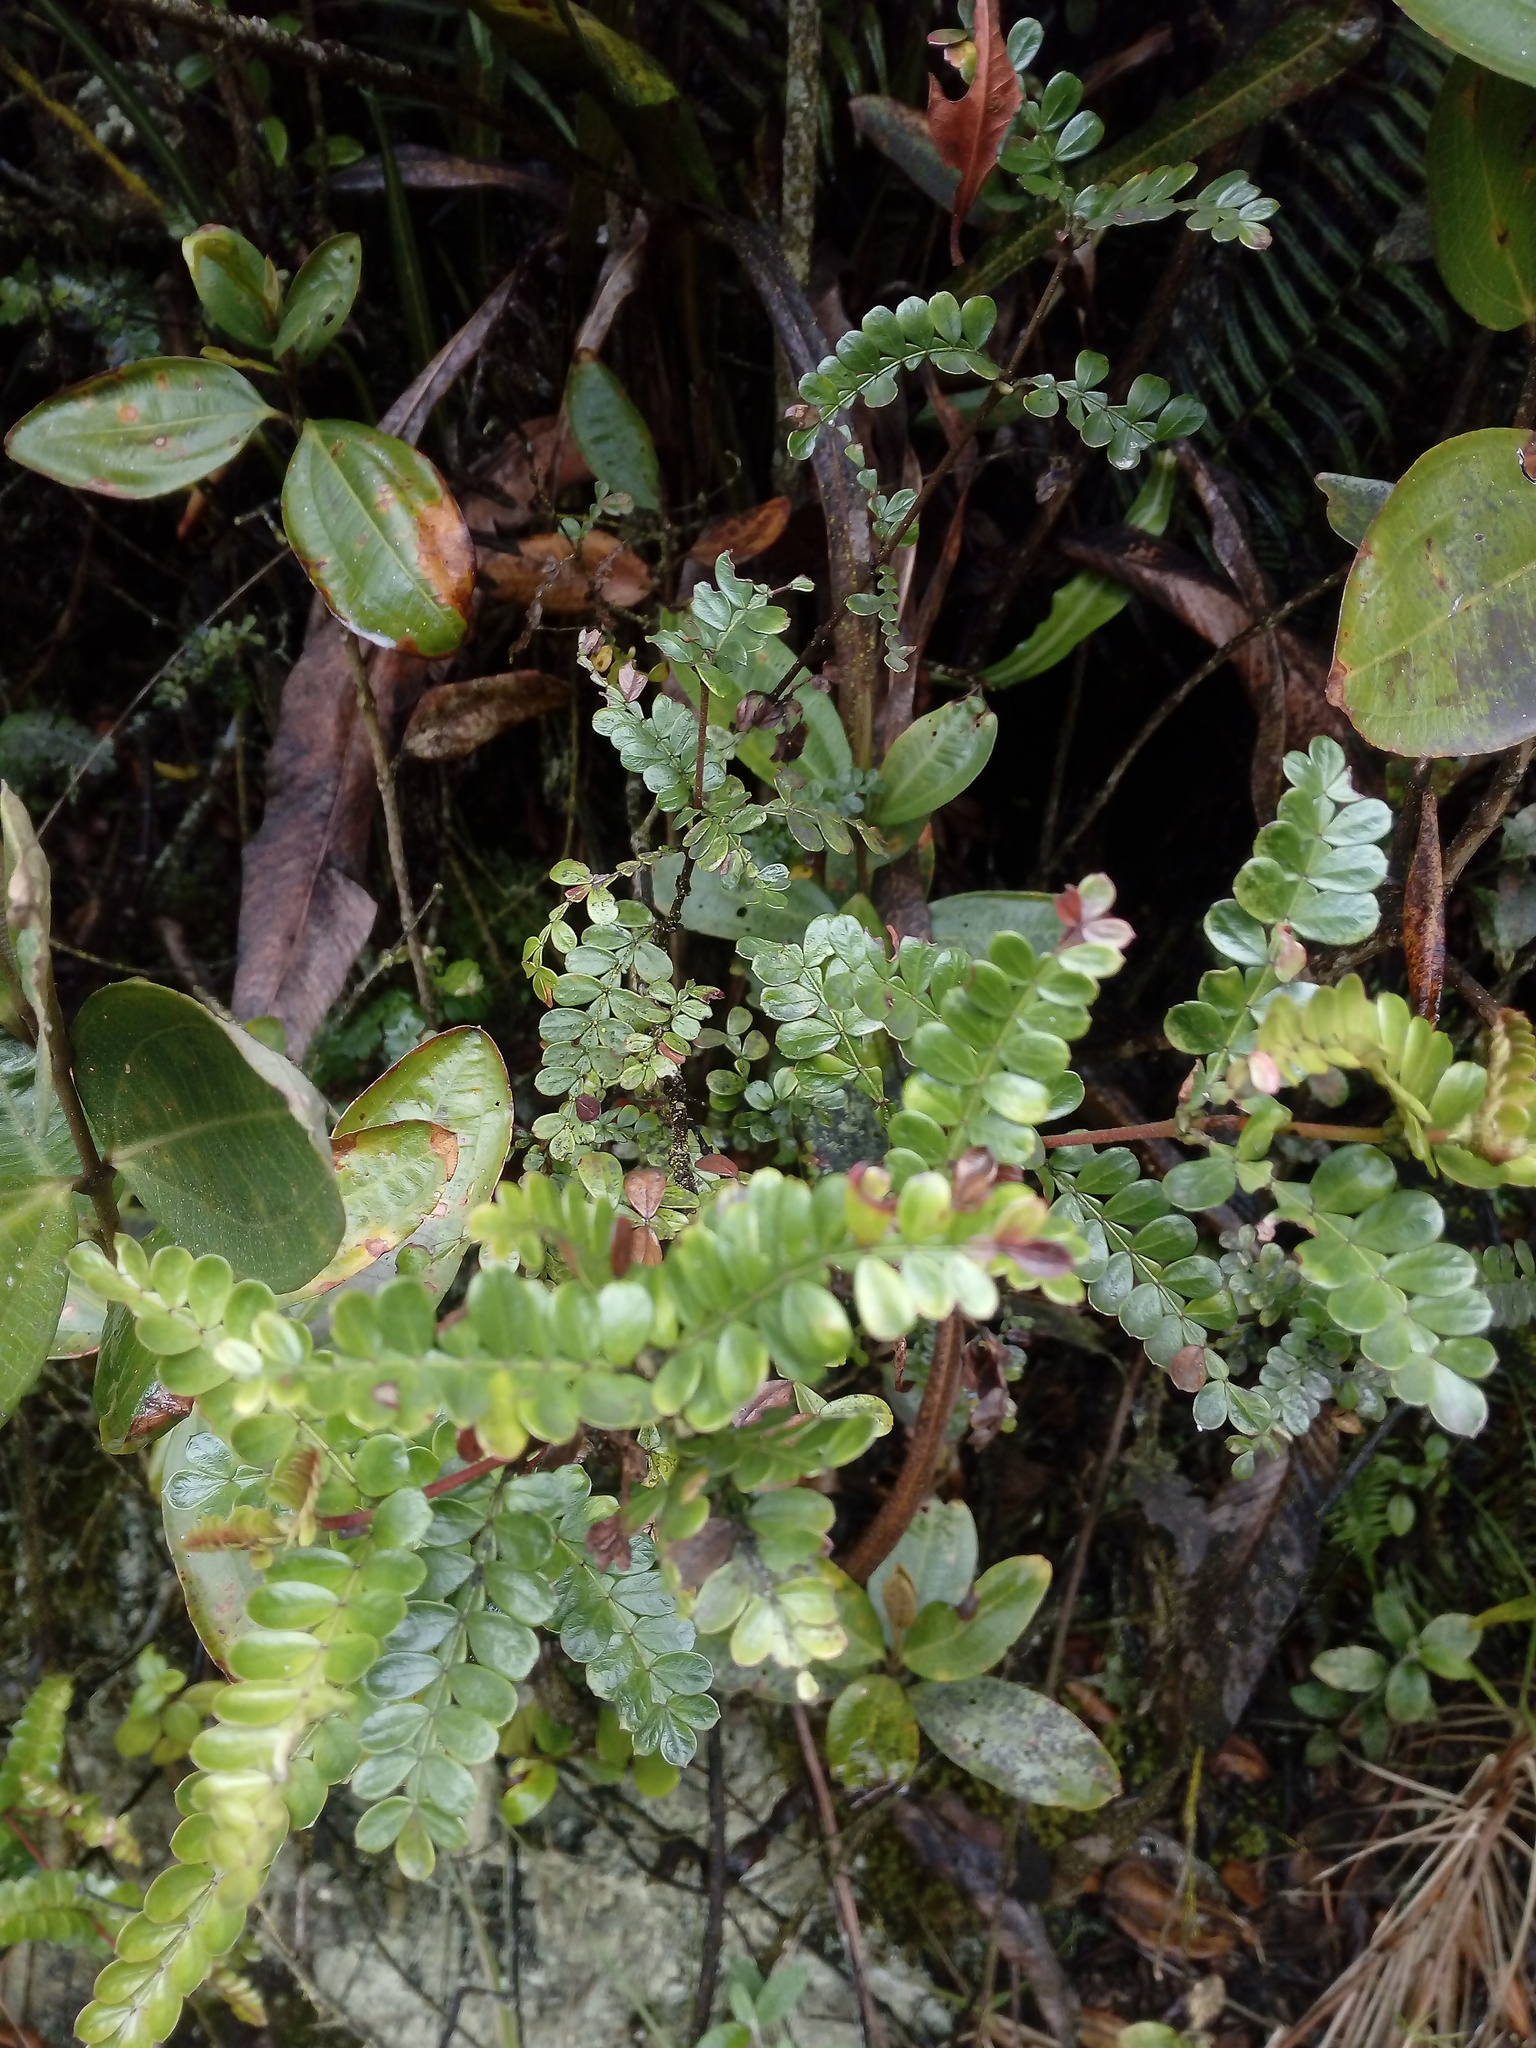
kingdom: Plantae
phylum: Tracheophyta
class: Magnoliopsida
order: Oxalidales
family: Cunoniaceae
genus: Weinmannia
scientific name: Weinmannia fagaroides
